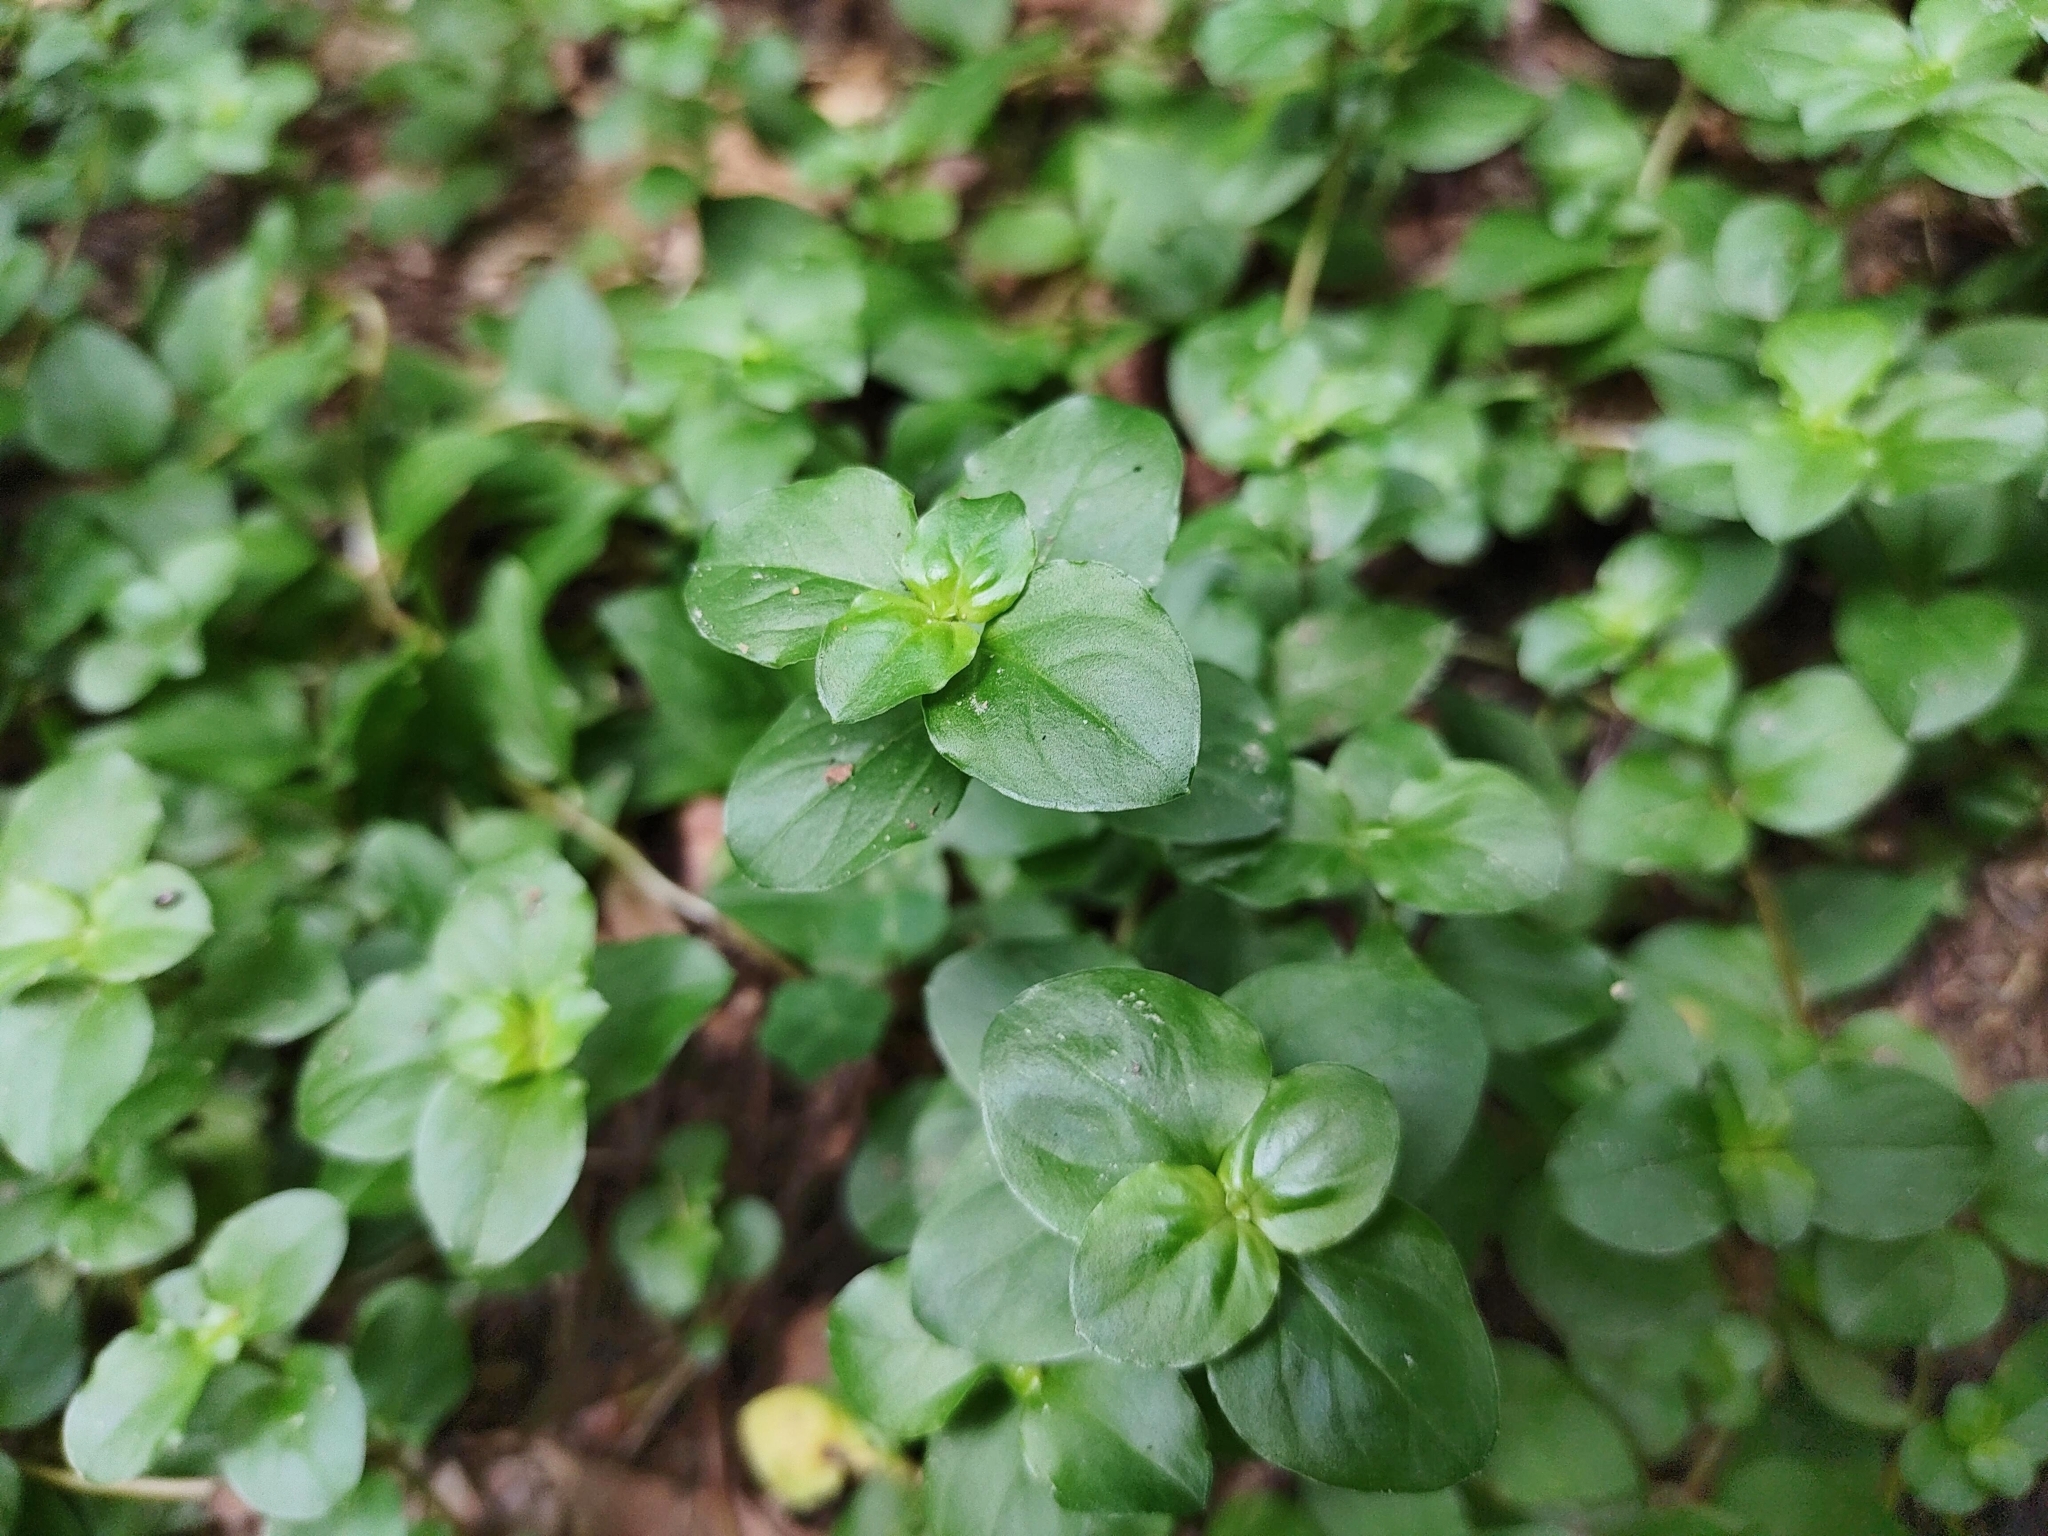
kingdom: Plantae
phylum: Tracheophyta
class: Magnoliopsida
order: Ericales
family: Primulaceae
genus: Lysimachia
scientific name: Lysimachia nemorum
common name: Yellow pimpernel
